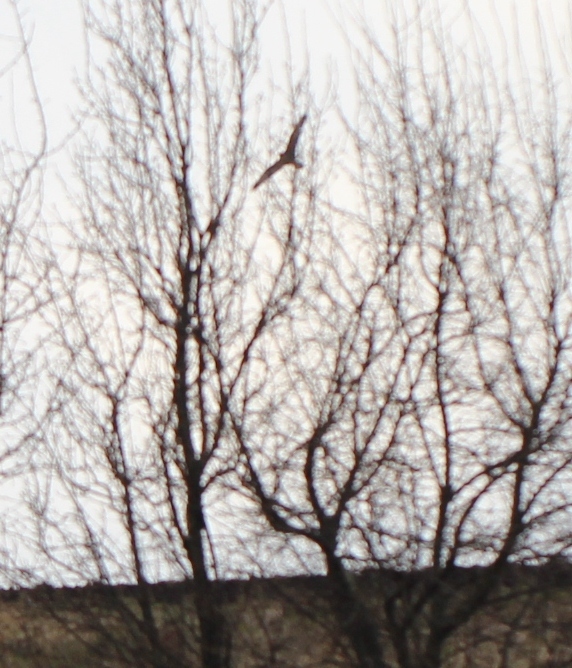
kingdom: Animalia
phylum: Chordata
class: Aves
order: Accipitriformes
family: Accipitridae
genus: Circus
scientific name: Circus aeruginosus
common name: Western marsh harrier
